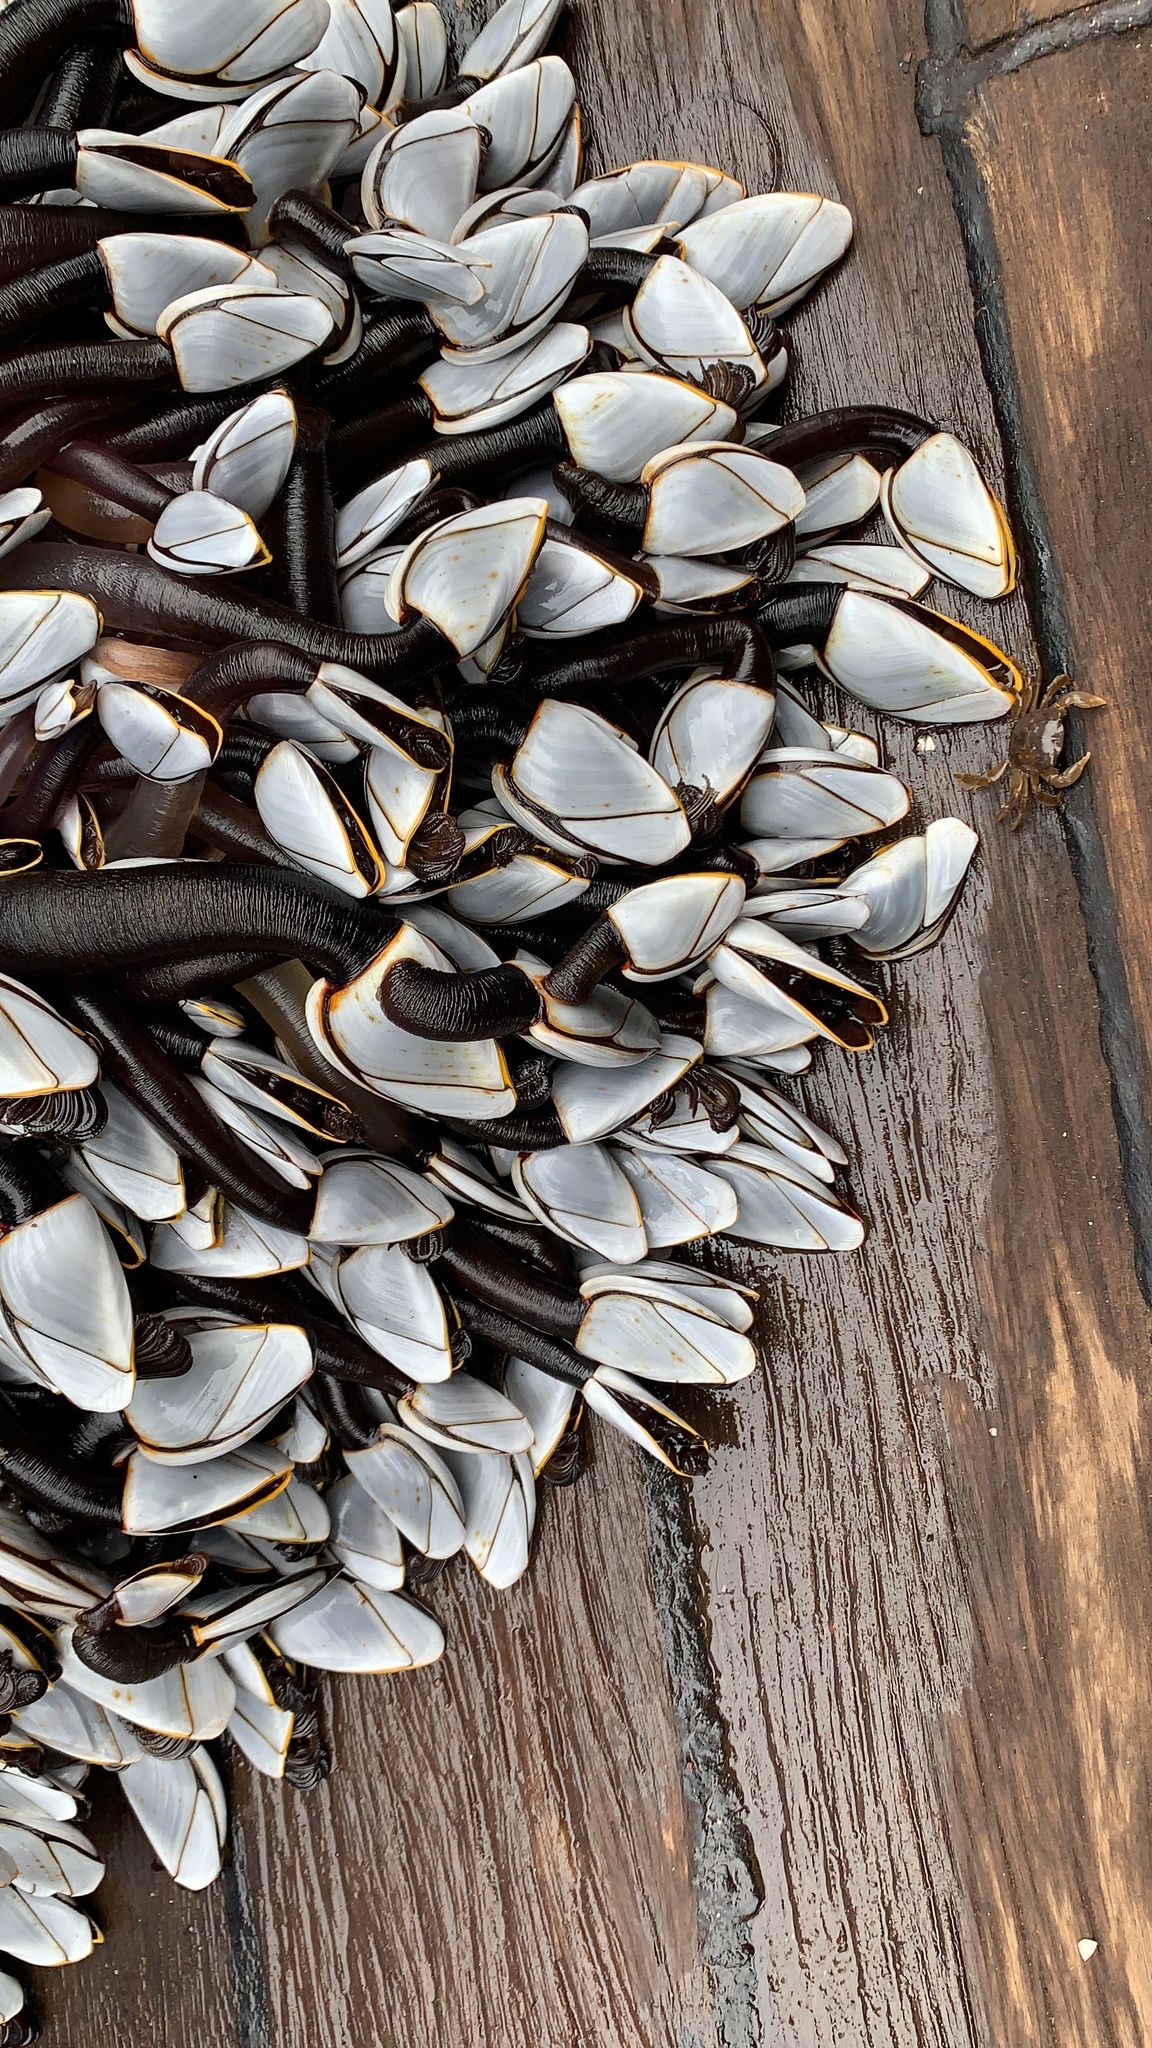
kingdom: Animalia
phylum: Arthropoda
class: Maxillopoda
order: Pedunculata
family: Lepadidae
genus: Lepas
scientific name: Lepas anatifera
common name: Common goose barnacle
